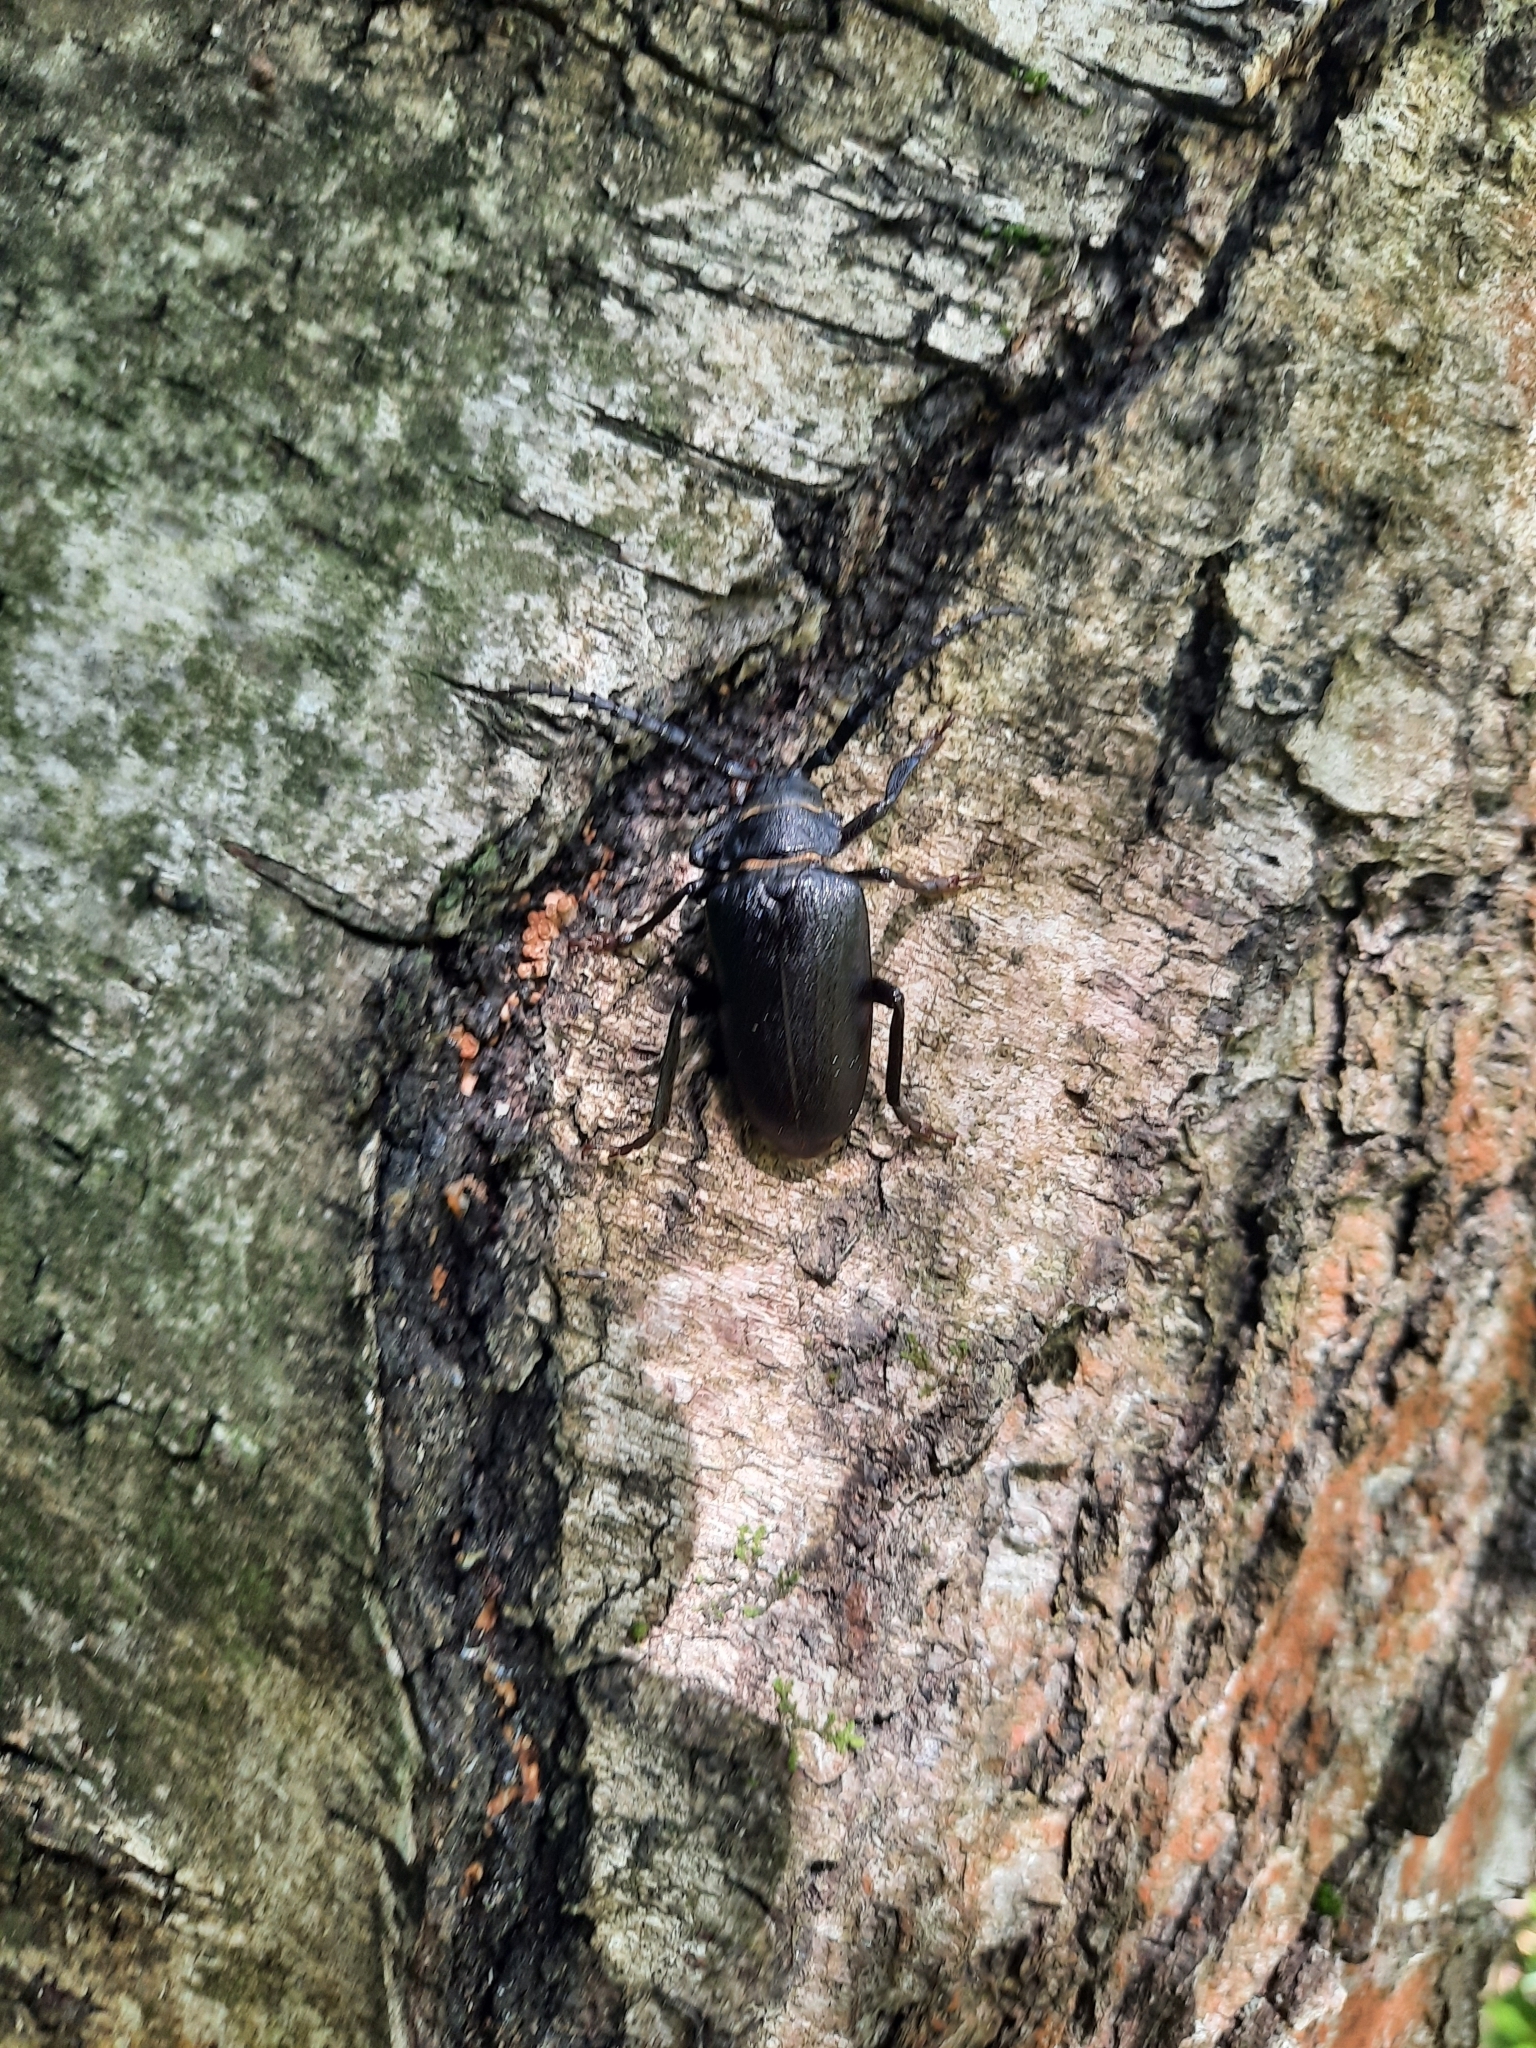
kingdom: Animalia
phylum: Arthropoda
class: Insecta
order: Coleoptera
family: Cerambycidae
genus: Prionus
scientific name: Prionus coriarius
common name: Tanner beetle
